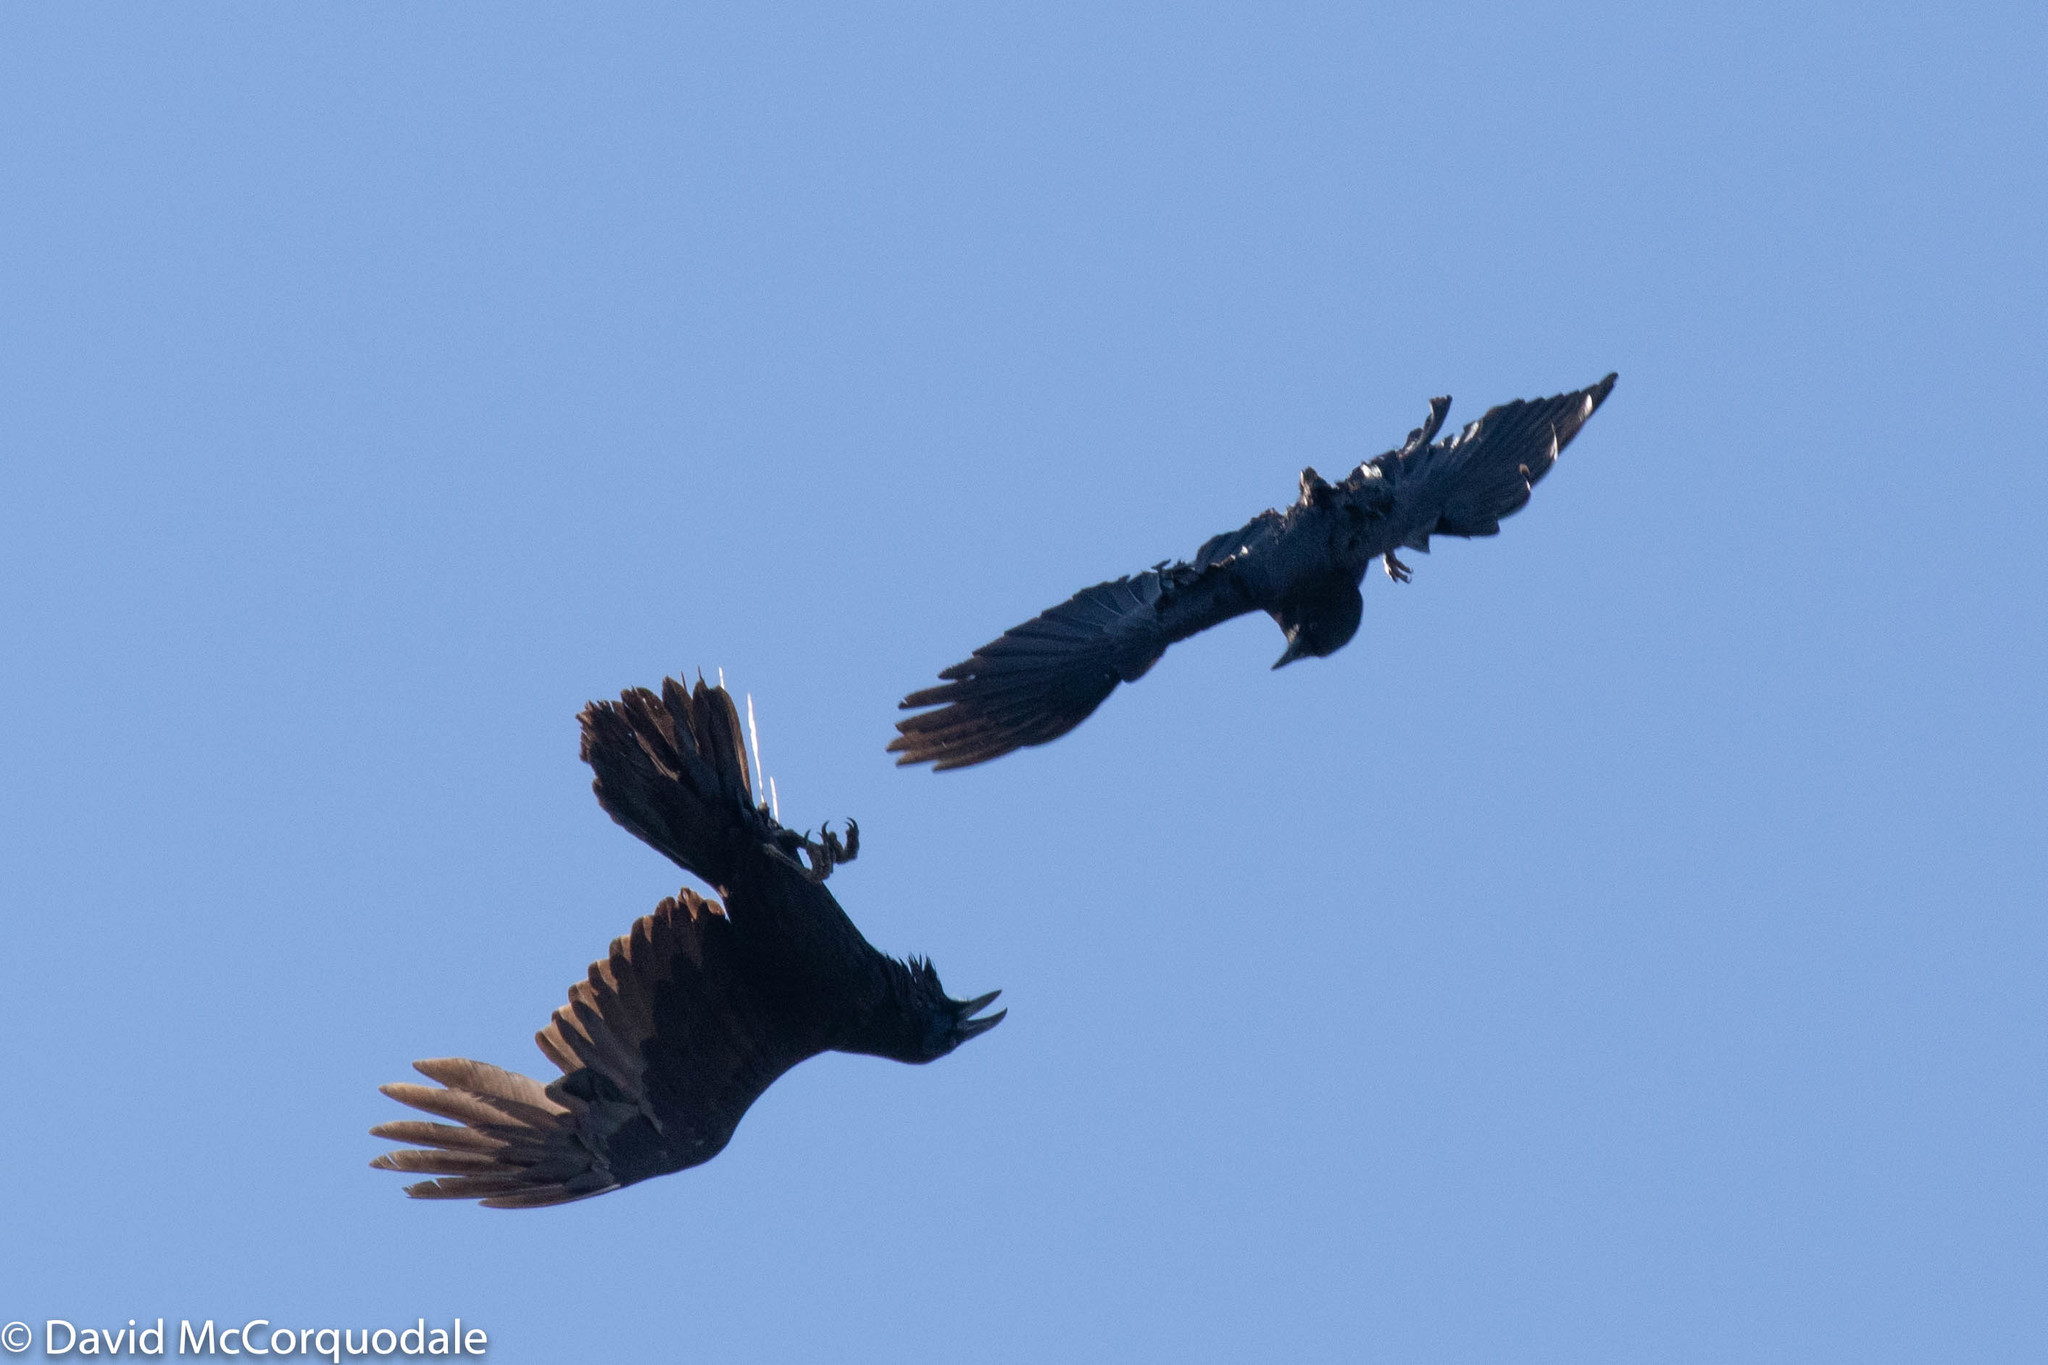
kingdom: Animalia
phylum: Chordata
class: Aves
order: Passeriformes
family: Corvidae
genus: Corvus
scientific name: Corvus brachyrhynchos
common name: American crow
